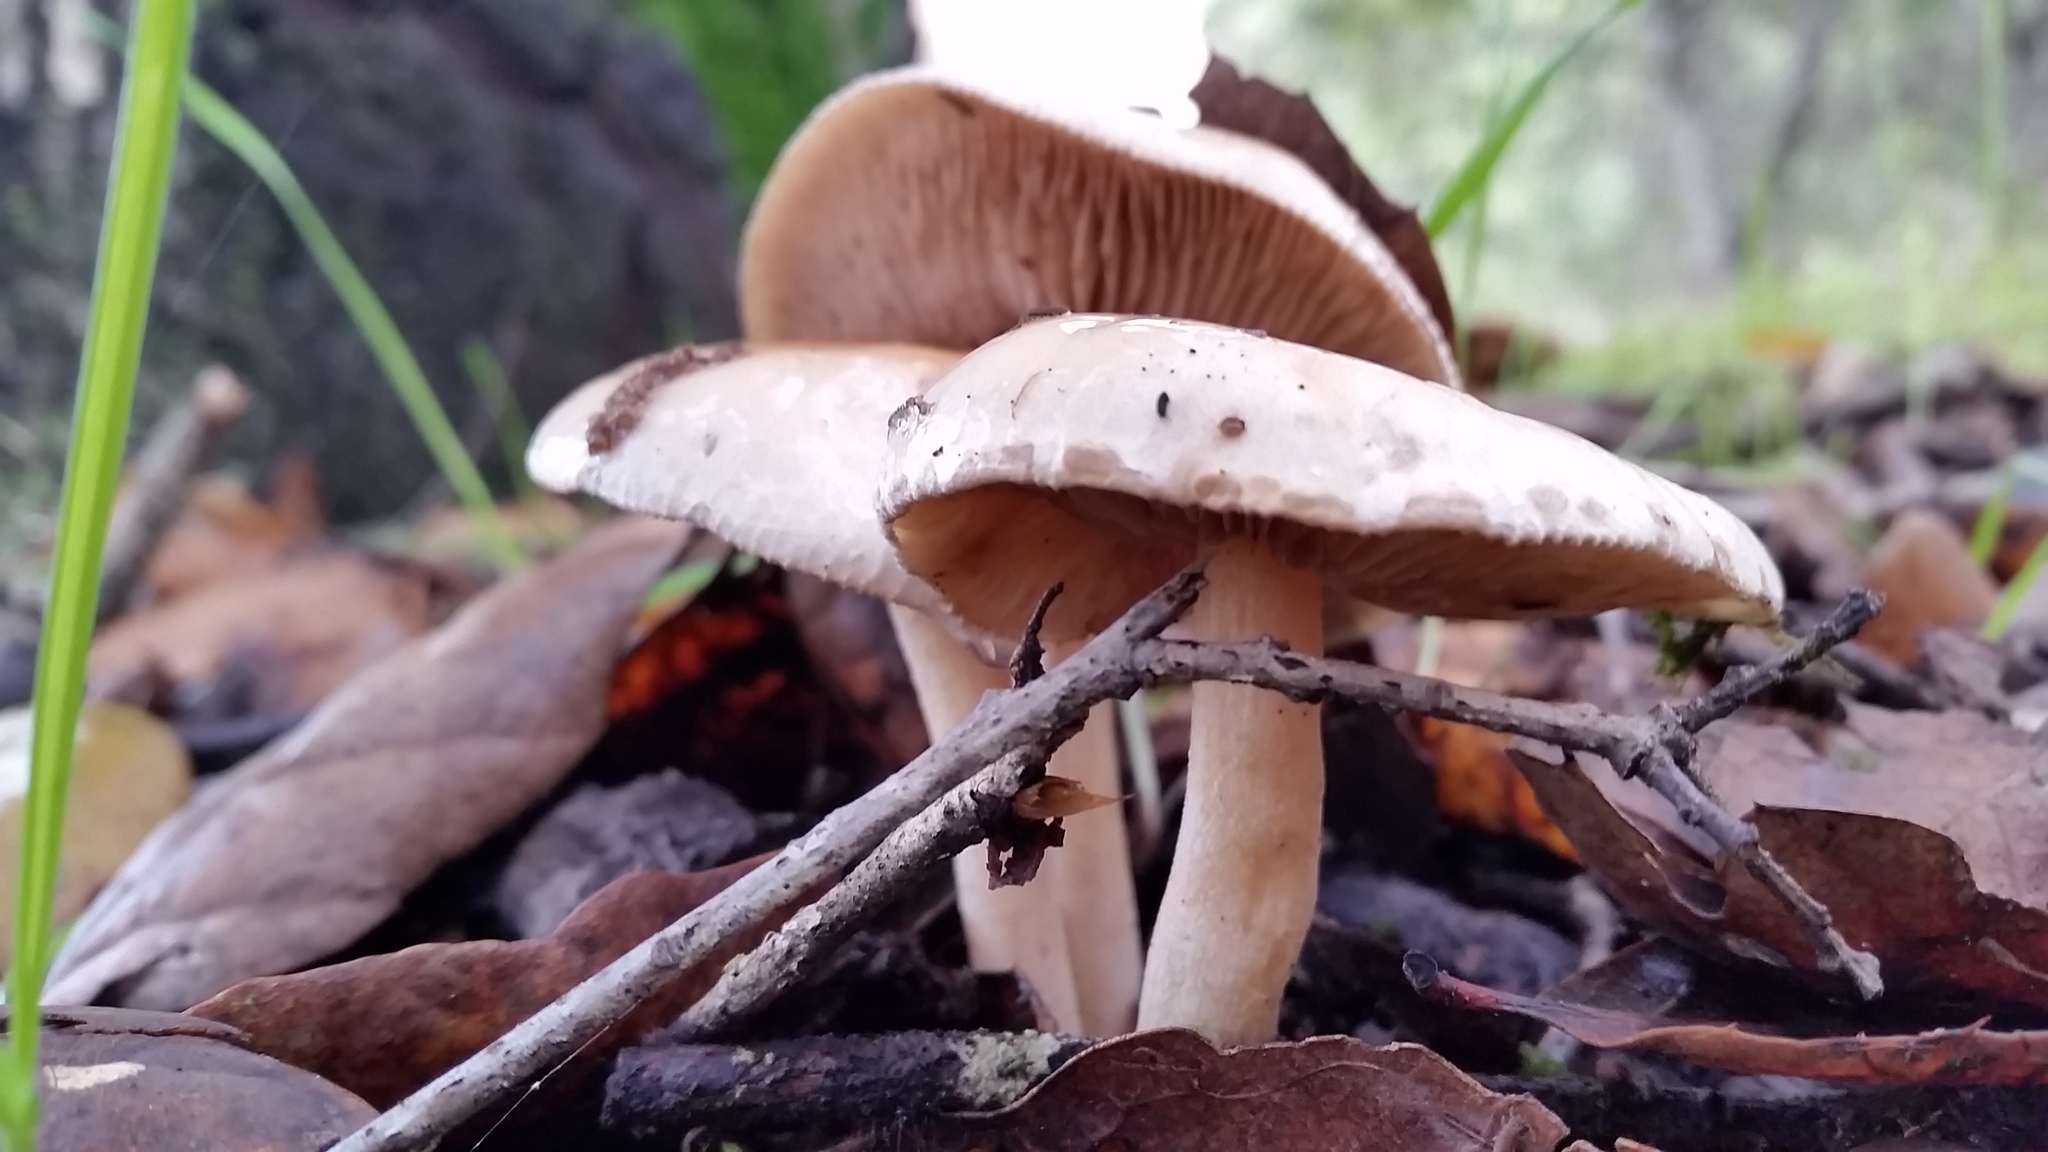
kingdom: Fungi
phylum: Basidiomycota
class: Agaricomycetes
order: Agaricales
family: Hygrophoraceae
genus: Hygrophorus
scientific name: Hygrophorus eburneus
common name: Ivory wax-cap
